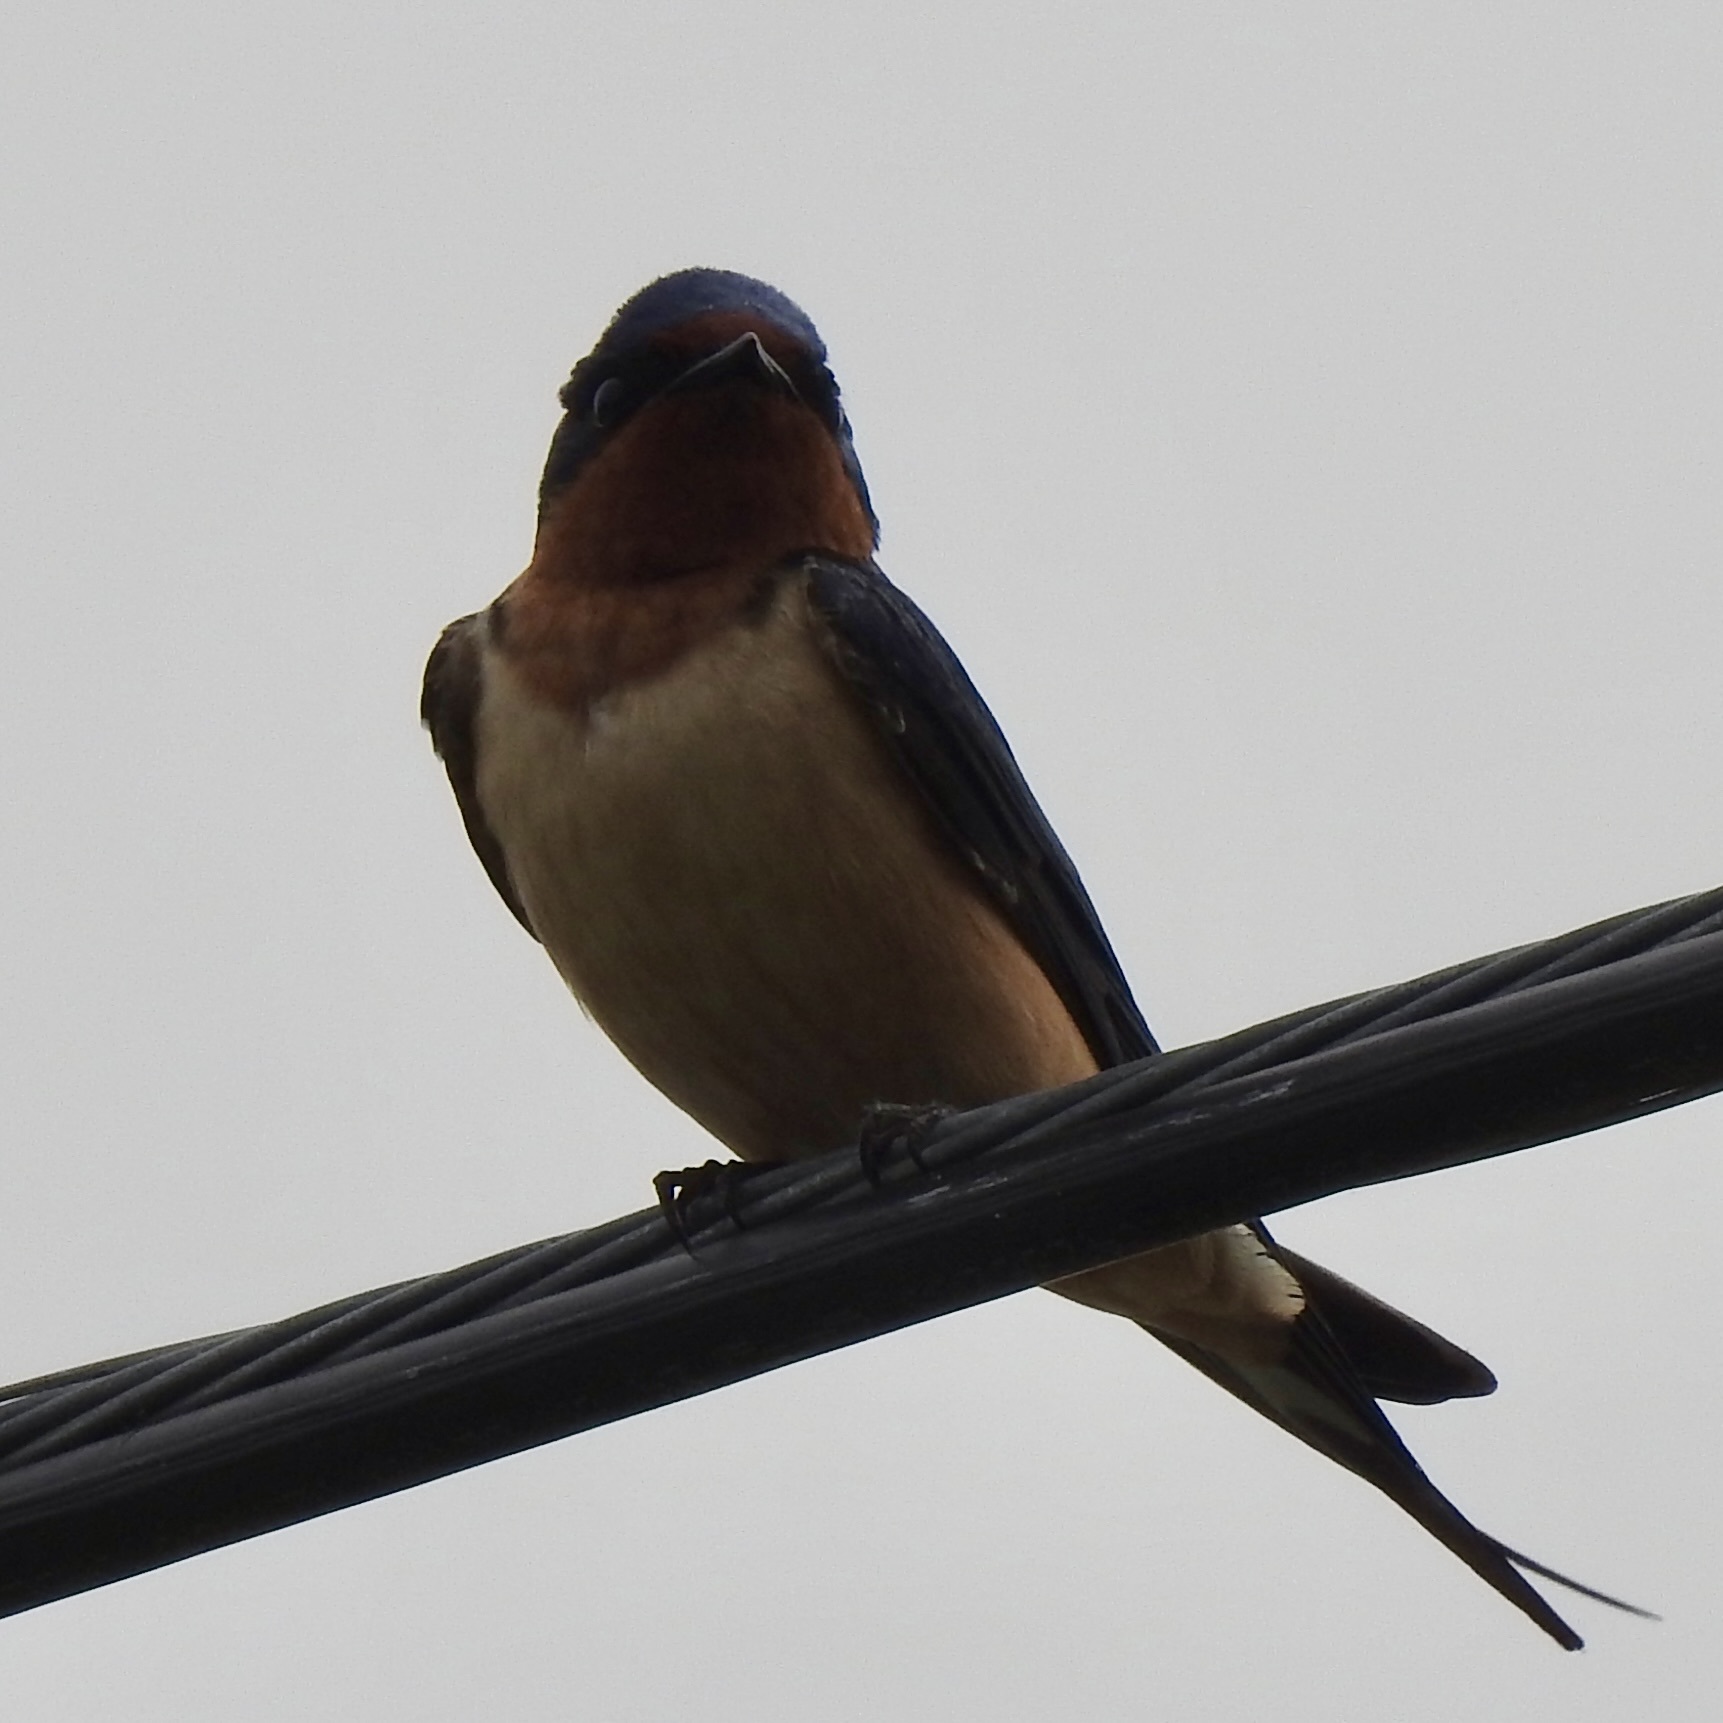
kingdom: Animalia
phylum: Chordata
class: Aves
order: Passeriformes
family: Hirundinidae
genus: Hirundo
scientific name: Hirundo rustica
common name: Barn swallow
